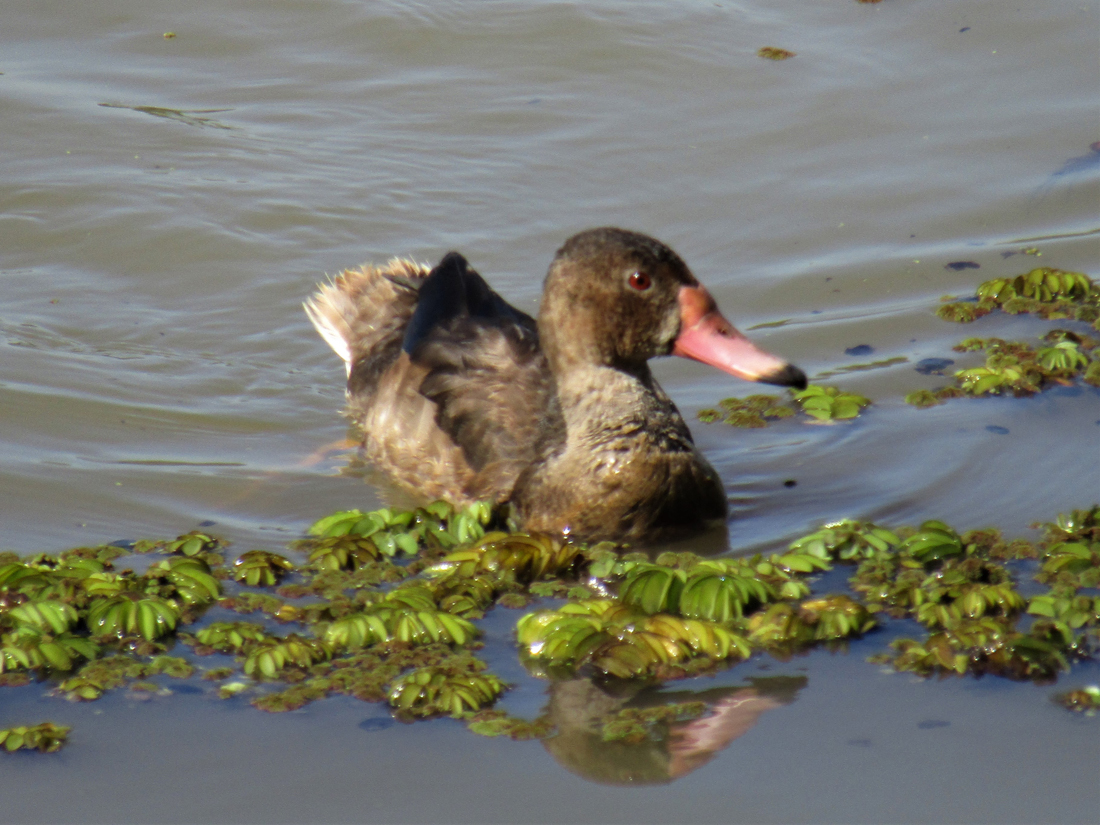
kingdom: Animalia
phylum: Chordata
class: Aves
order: Anseriformes
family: Anatidae
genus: Netta
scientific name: Netta peposaca
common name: Rosy-billed pochard
